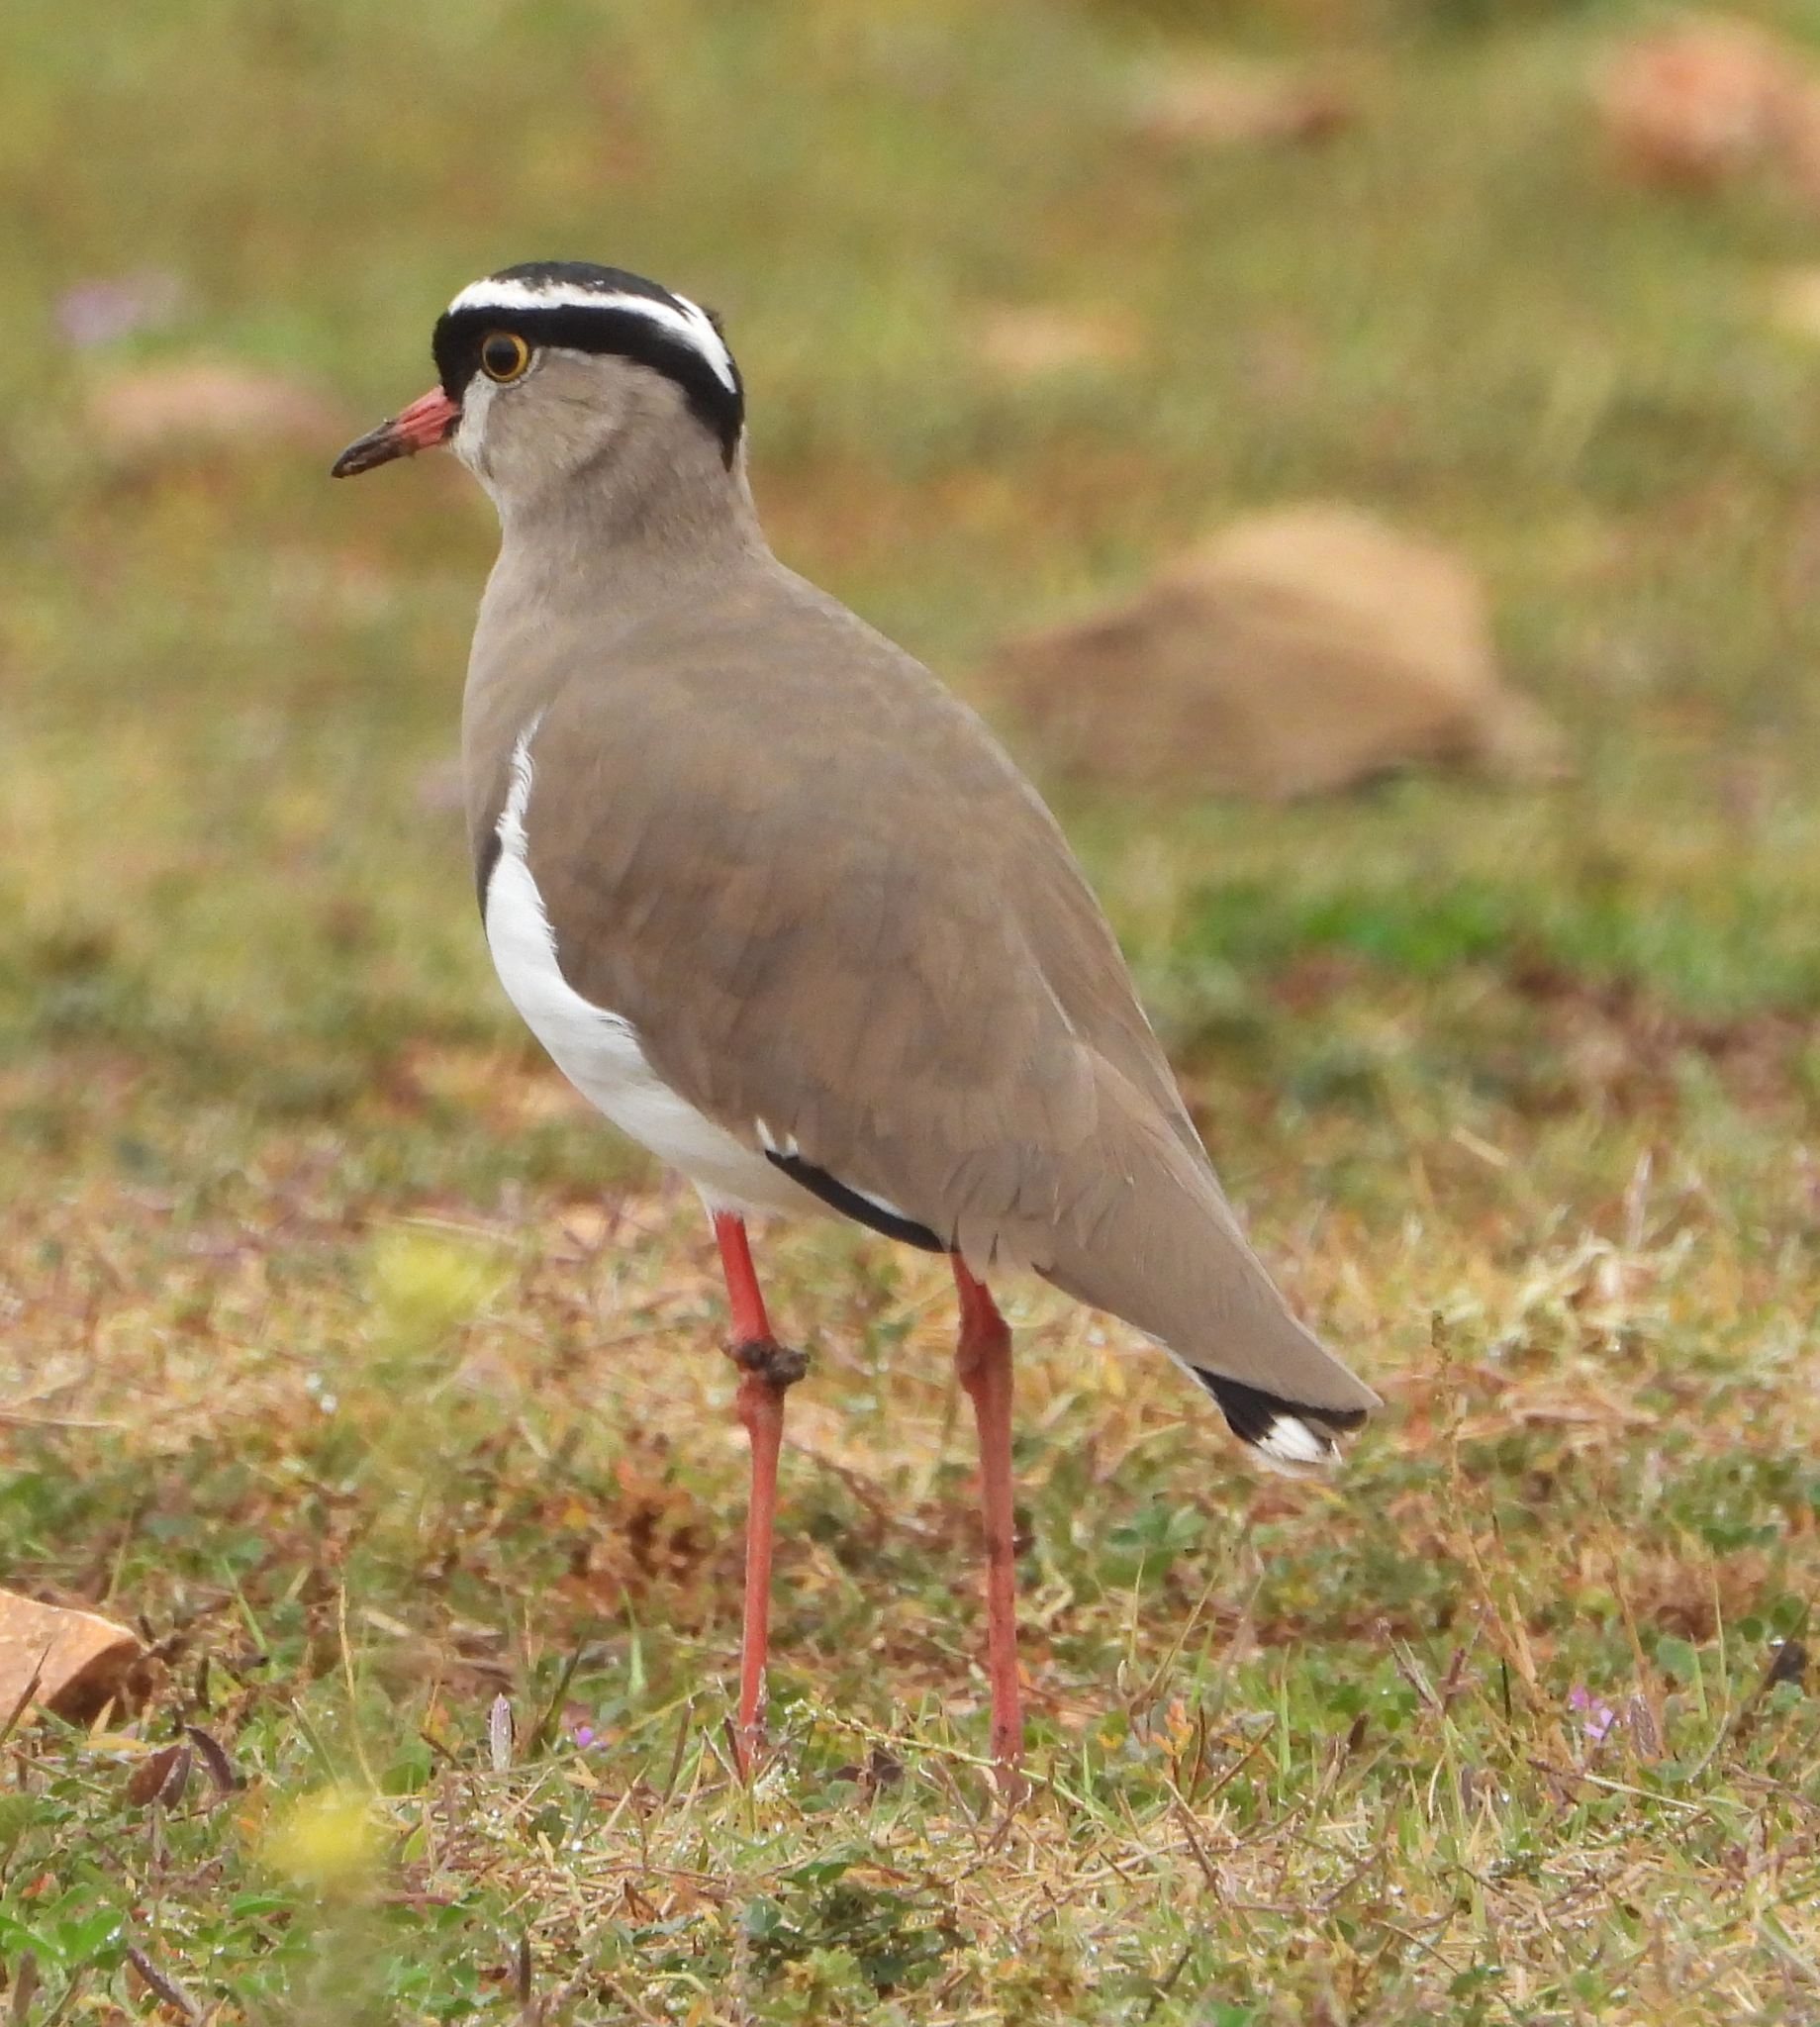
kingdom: Animalia
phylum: Chordata
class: Aves
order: Charadriiformes
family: Charadriidae
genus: Vanellus
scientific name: Vanellus coronatus
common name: Crowned lapwing
